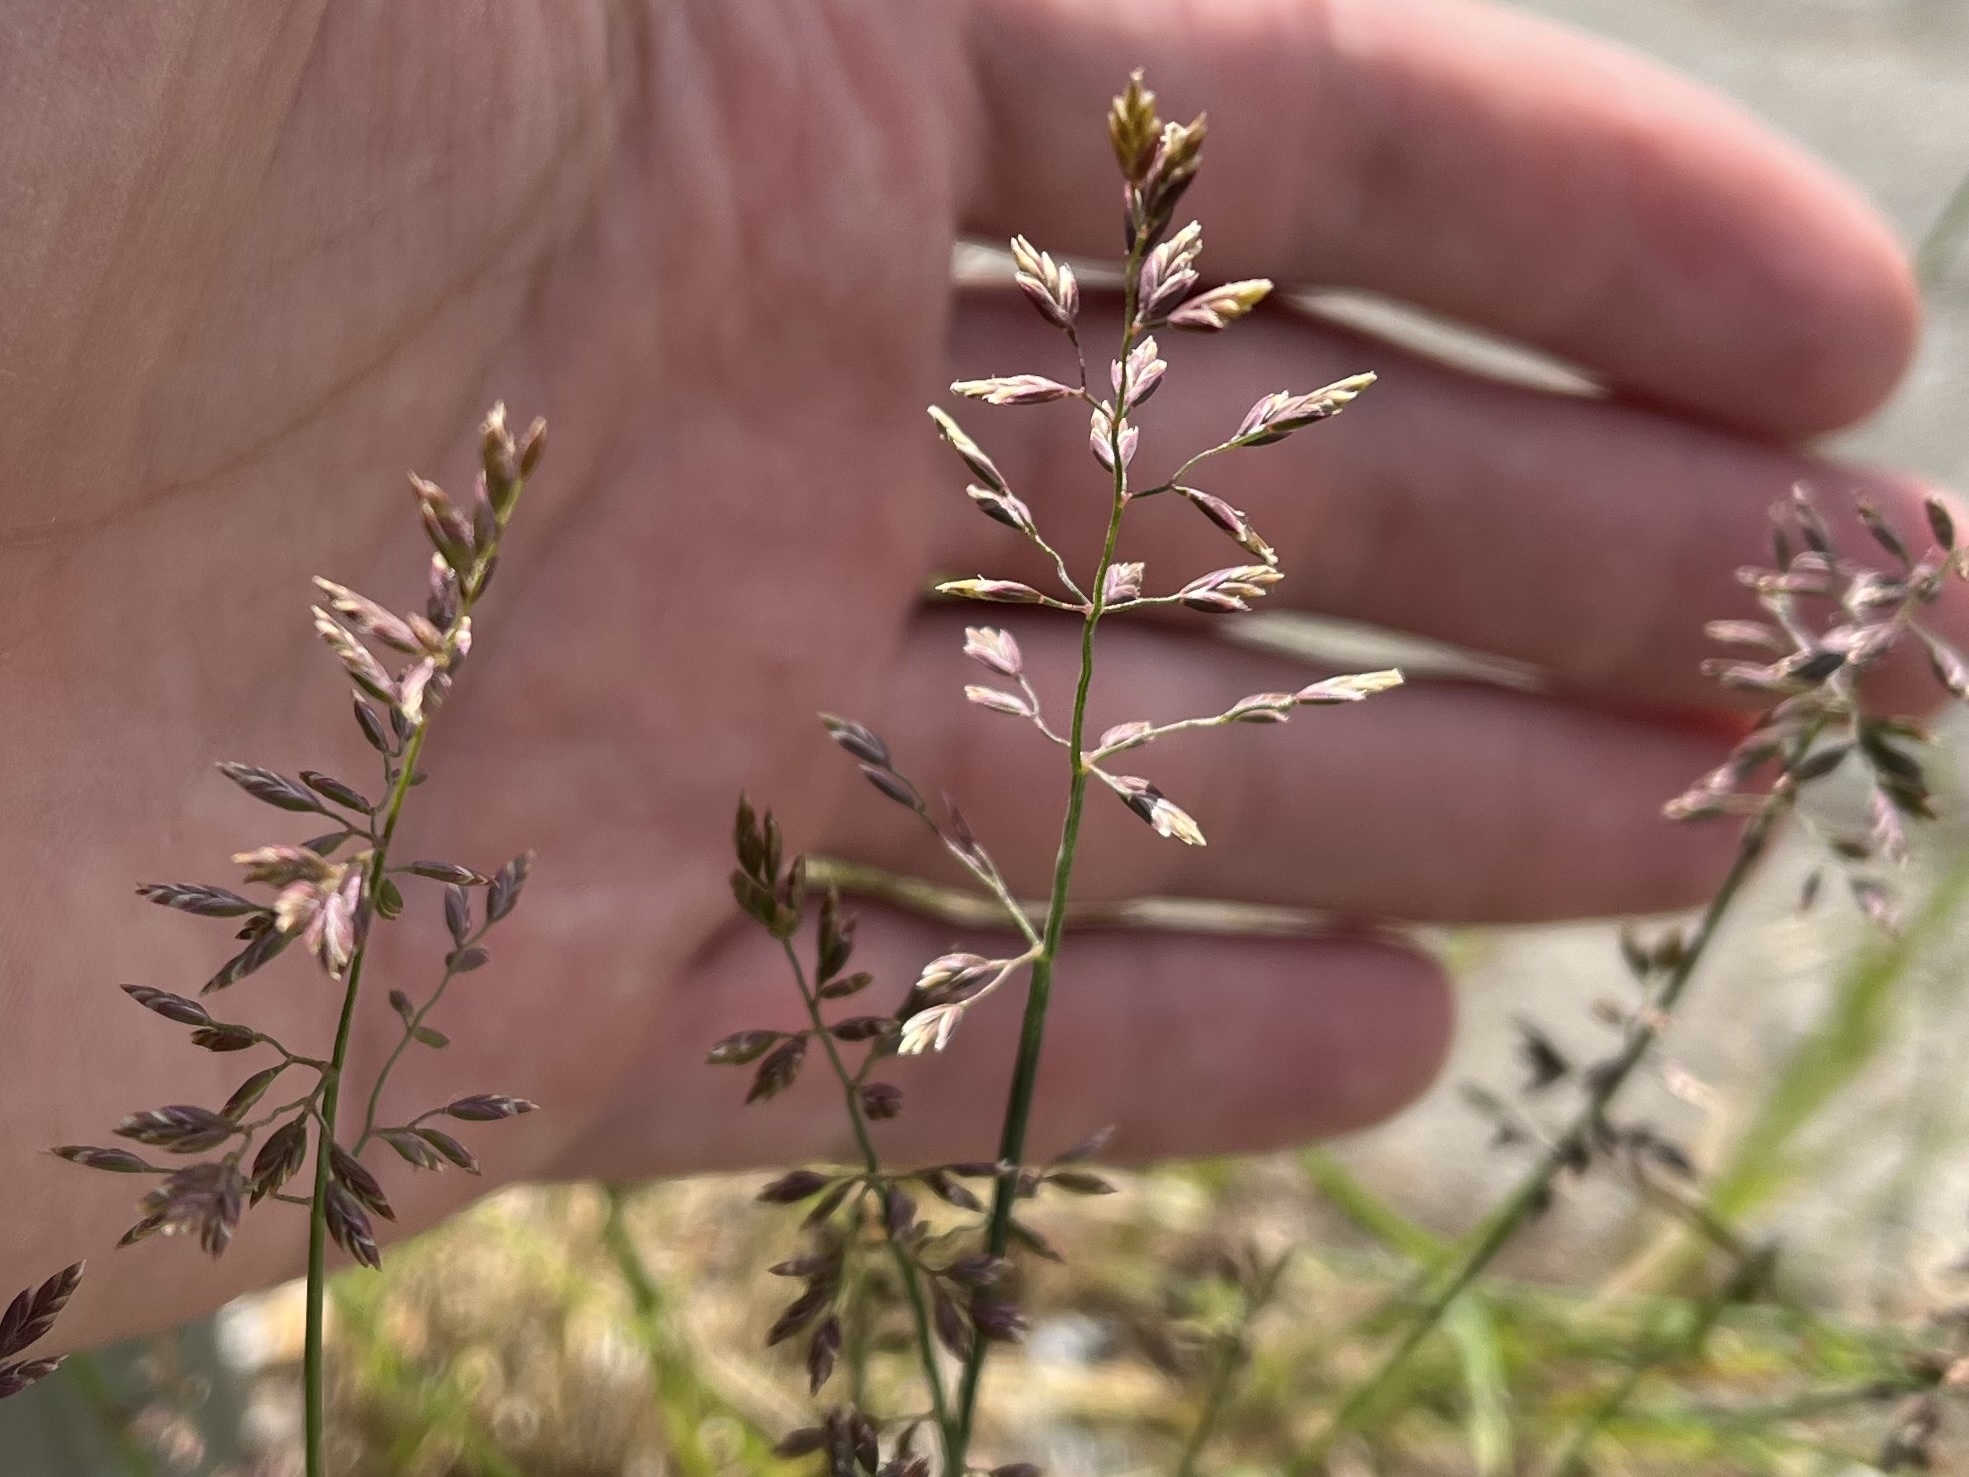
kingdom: Plantae
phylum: Tracheophyta
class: Liliopsida
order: Poales
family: Poaceae
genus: Poa
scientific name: Poa compressa
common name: Canada bluegrass
